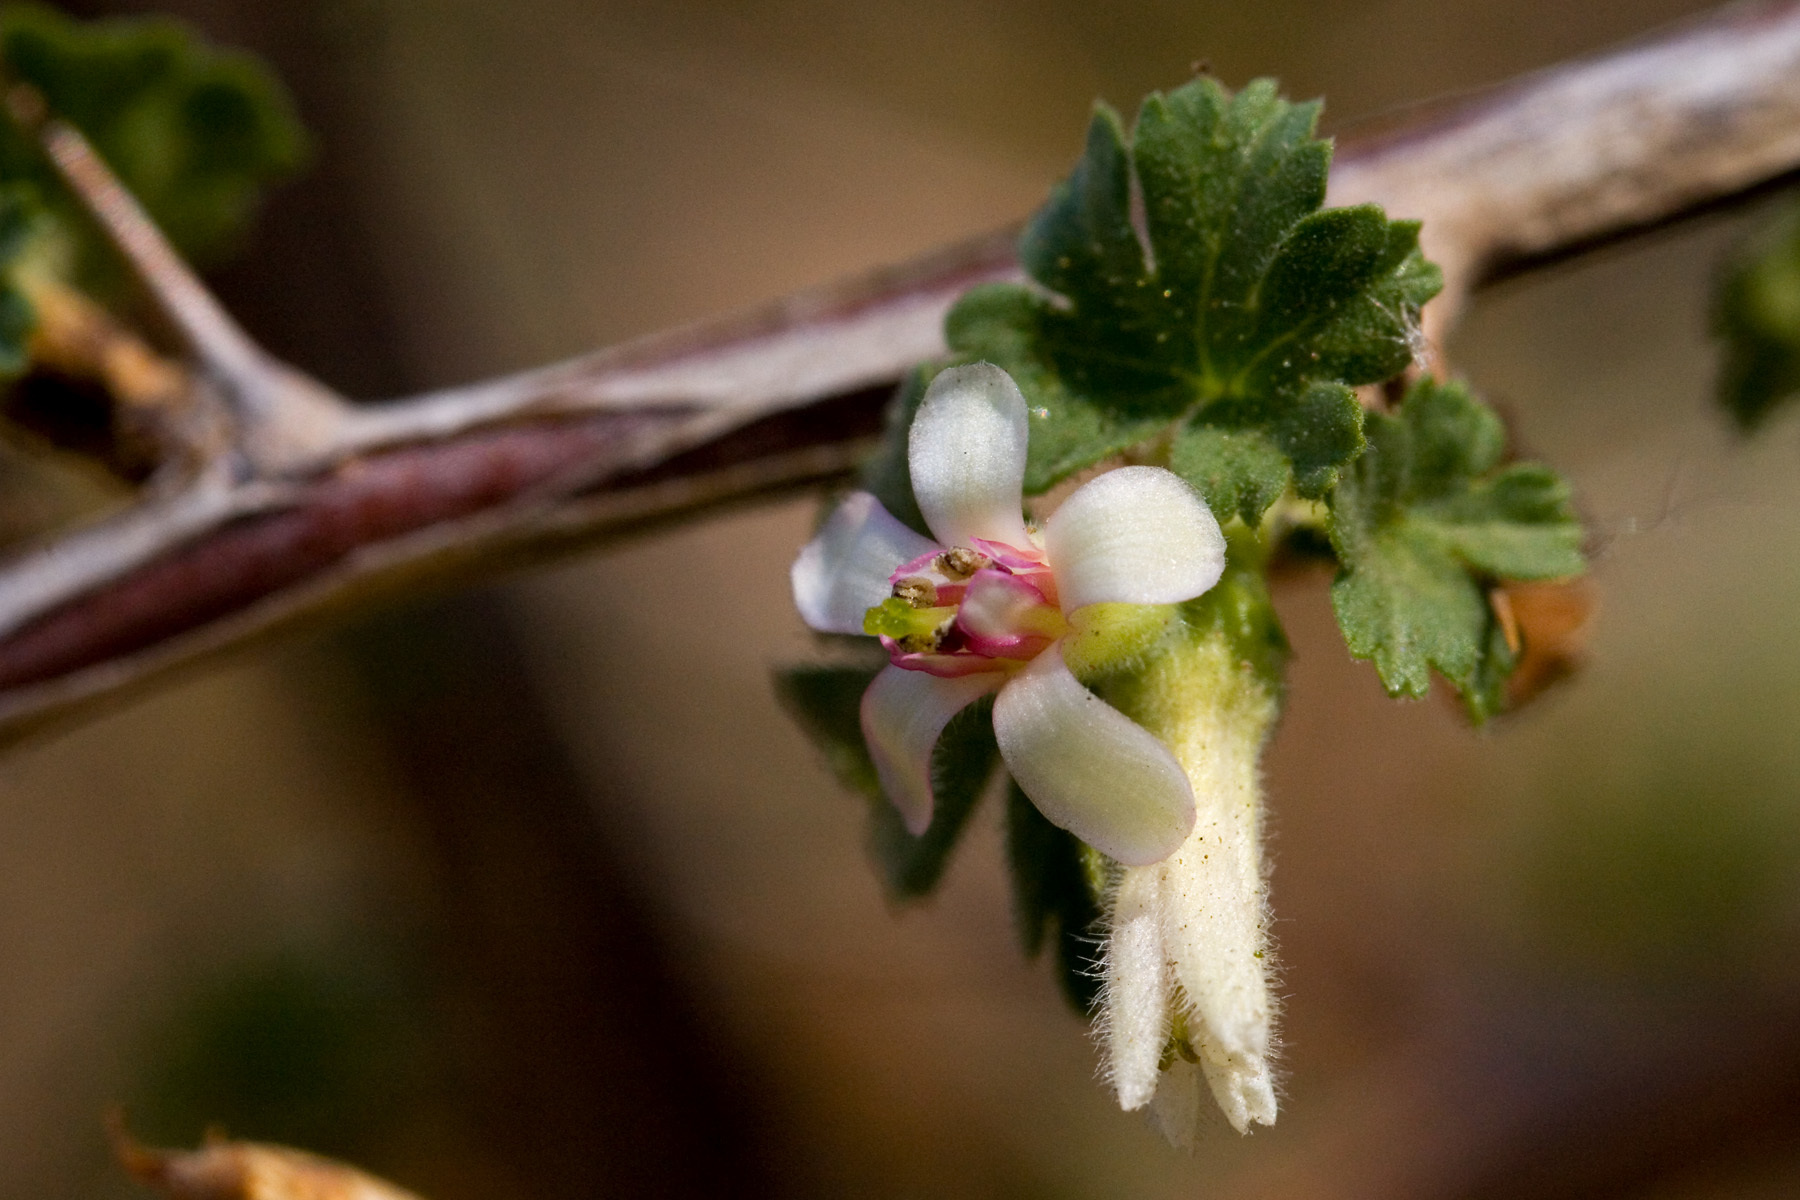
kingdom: Plantae
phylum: Tracheophyta
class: Magnoliopsida
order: Saxifragales
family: Grossulariaceae
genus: Ribes
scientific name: Ribes leptanthum
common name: Trumpet gooseberry
